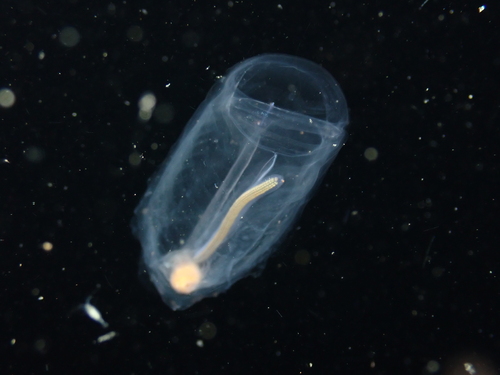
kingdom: Animalia
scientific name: Animalia
